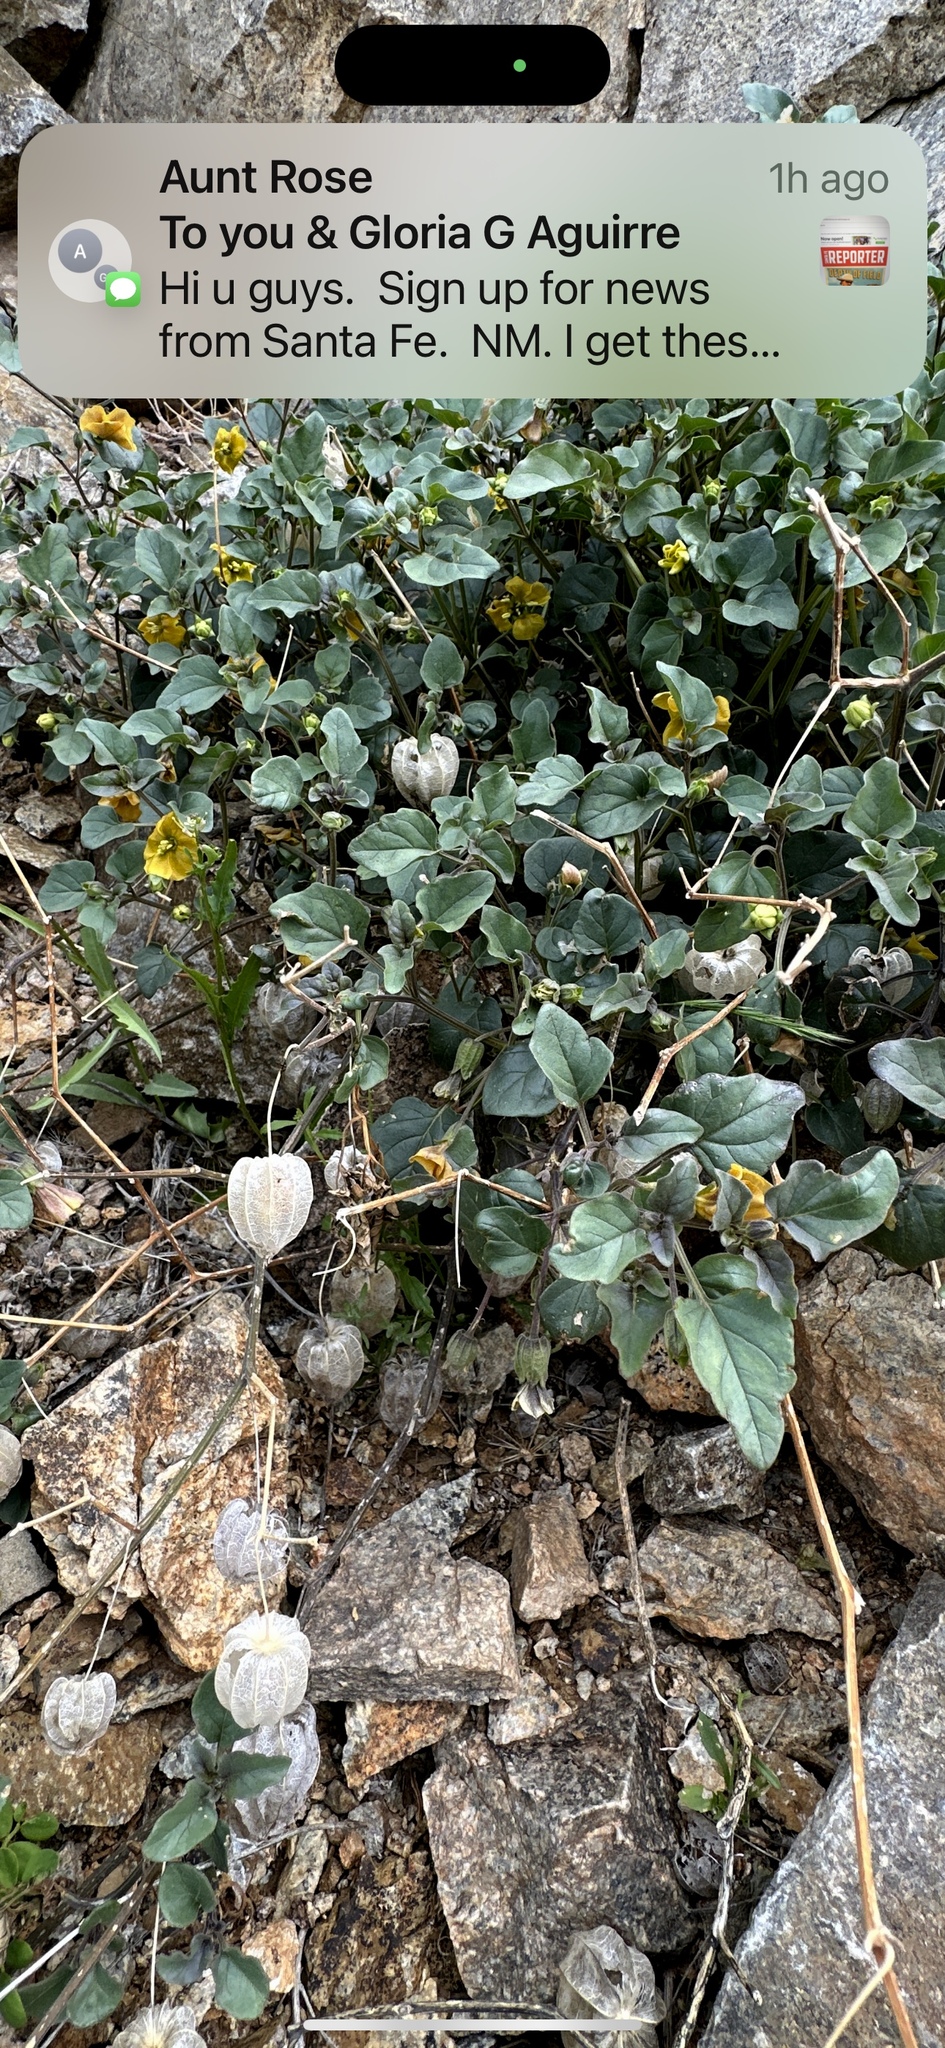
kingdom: Plantae
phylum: Tracheophyta
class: Magnoliopsida
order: Solanales
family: Solanaceae
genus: Physalis
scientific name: Physalis crassifolia
